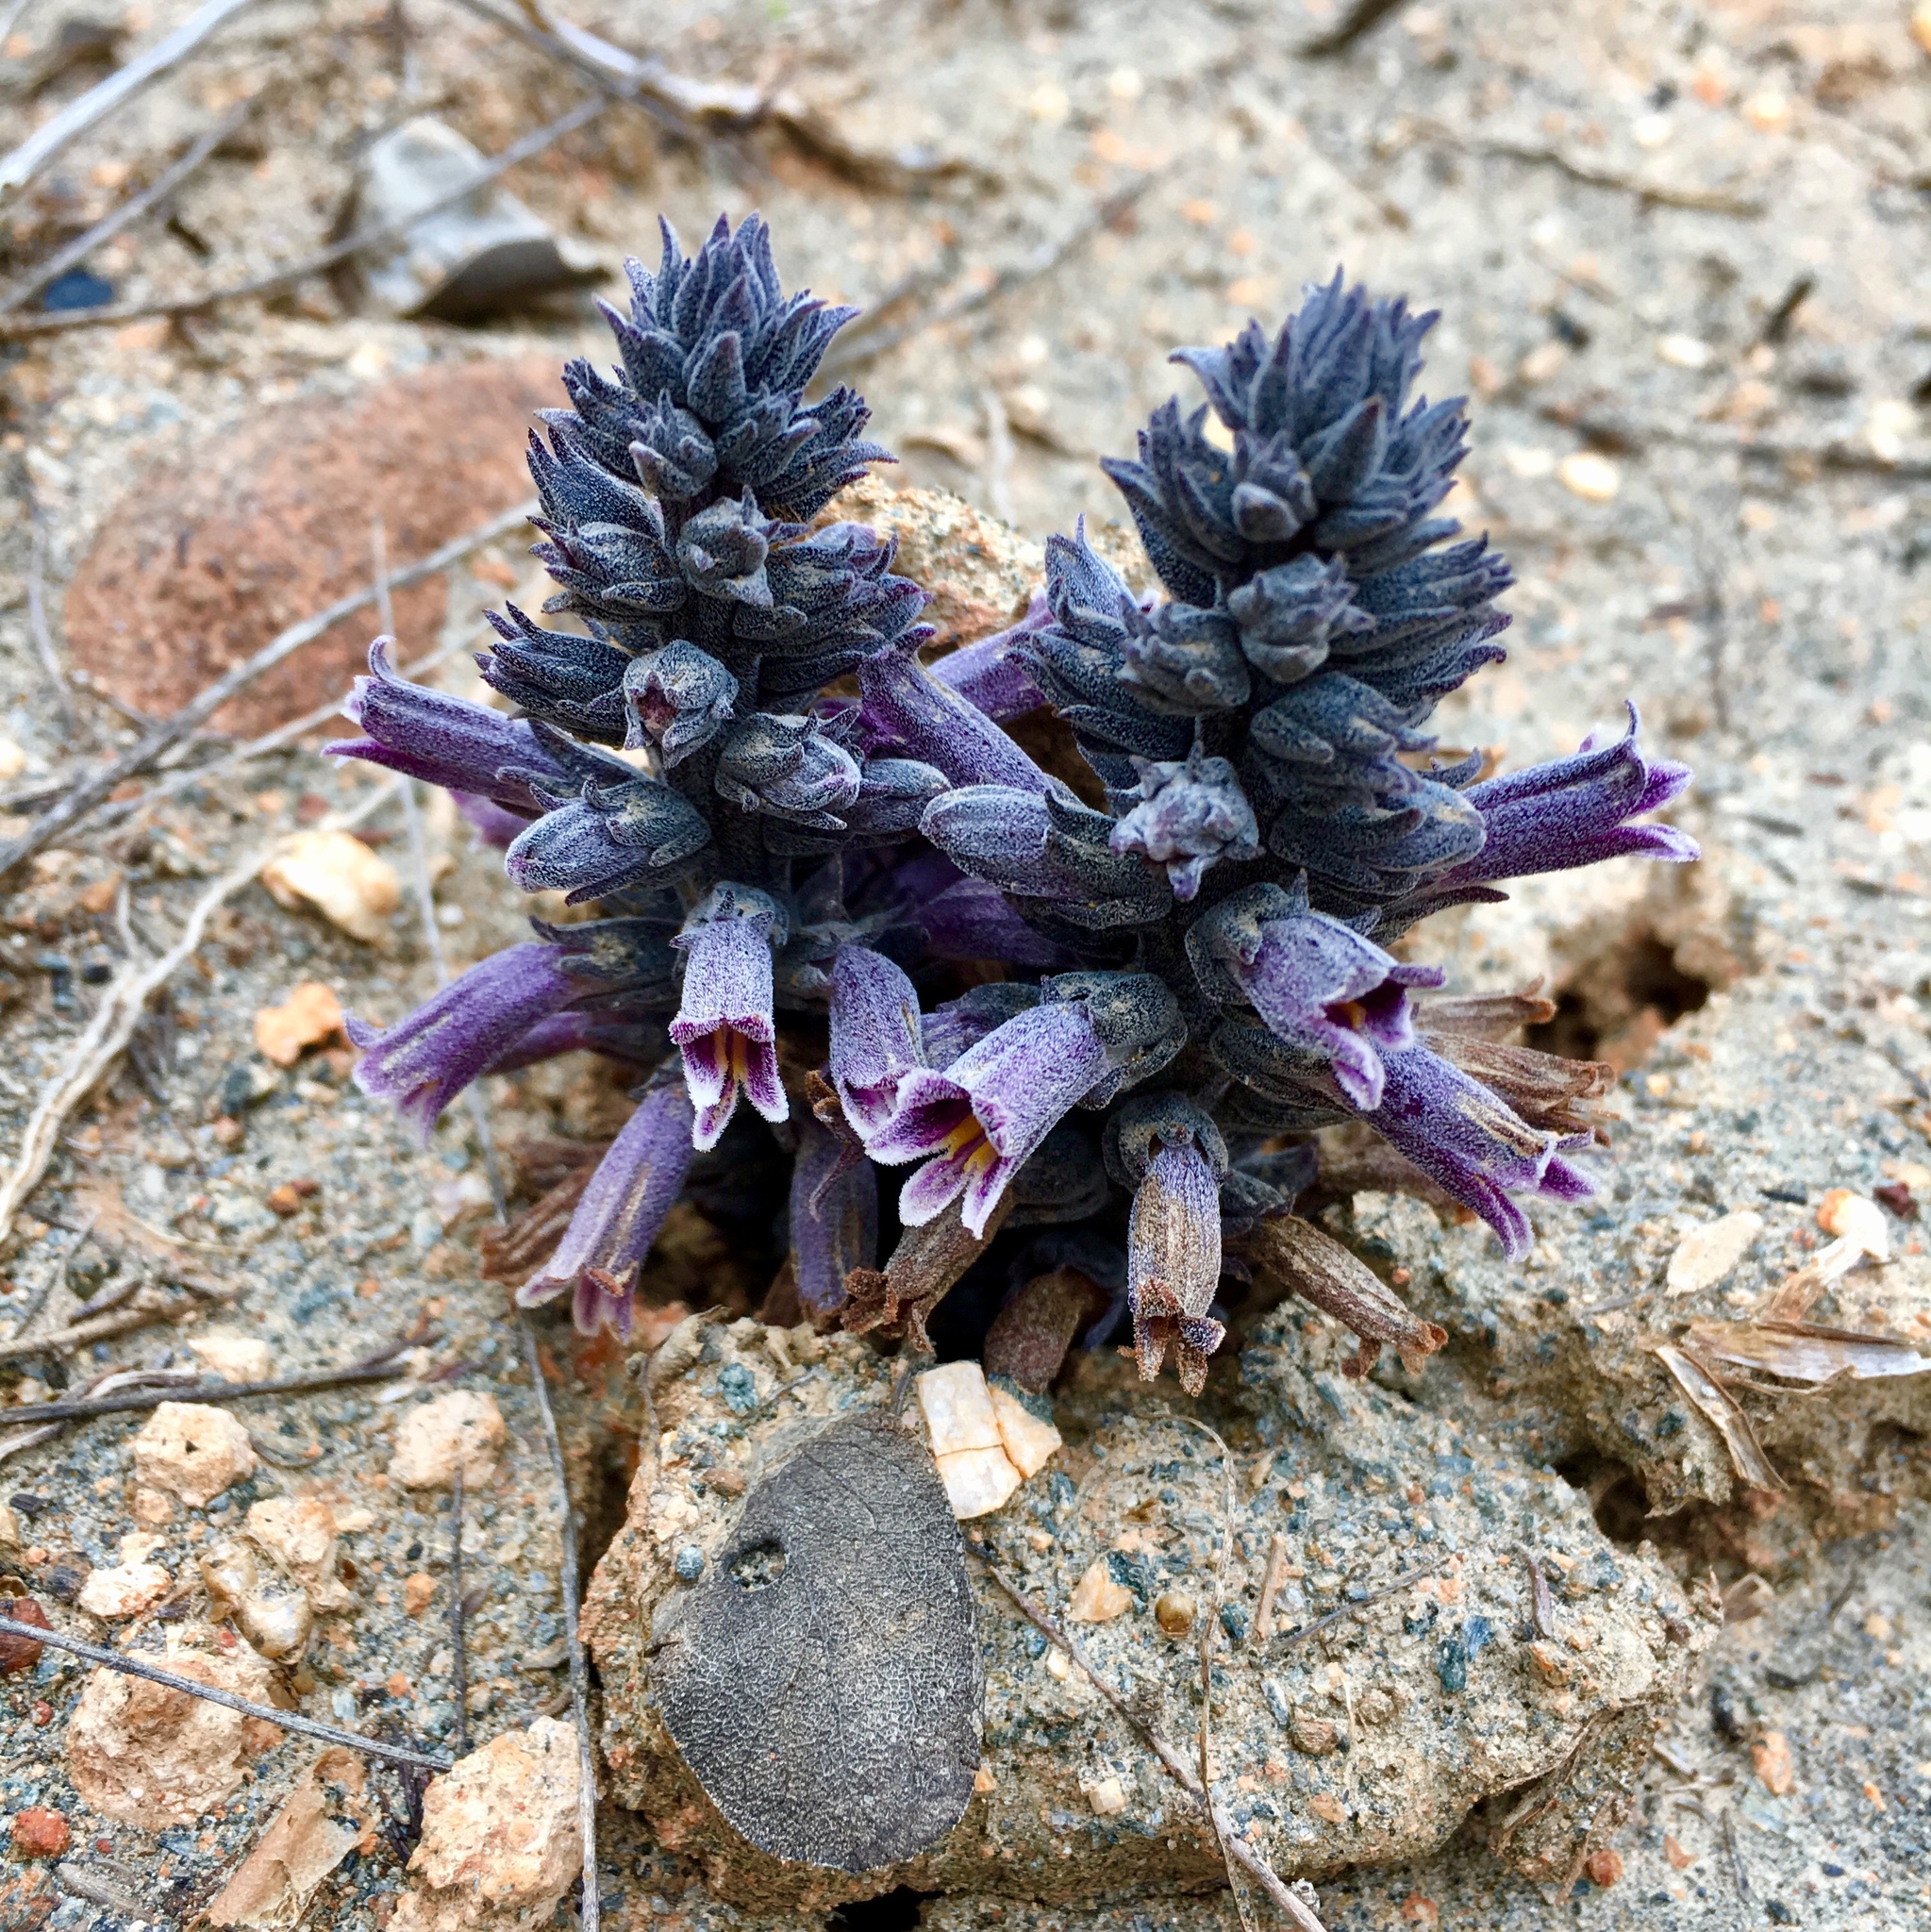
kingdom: Plantae
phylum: Tracheophyta
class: Magnoliopsida
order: Lamiales
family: Orobanchaceae
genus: Aphyllon
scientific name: Aphyllon tuberosum
